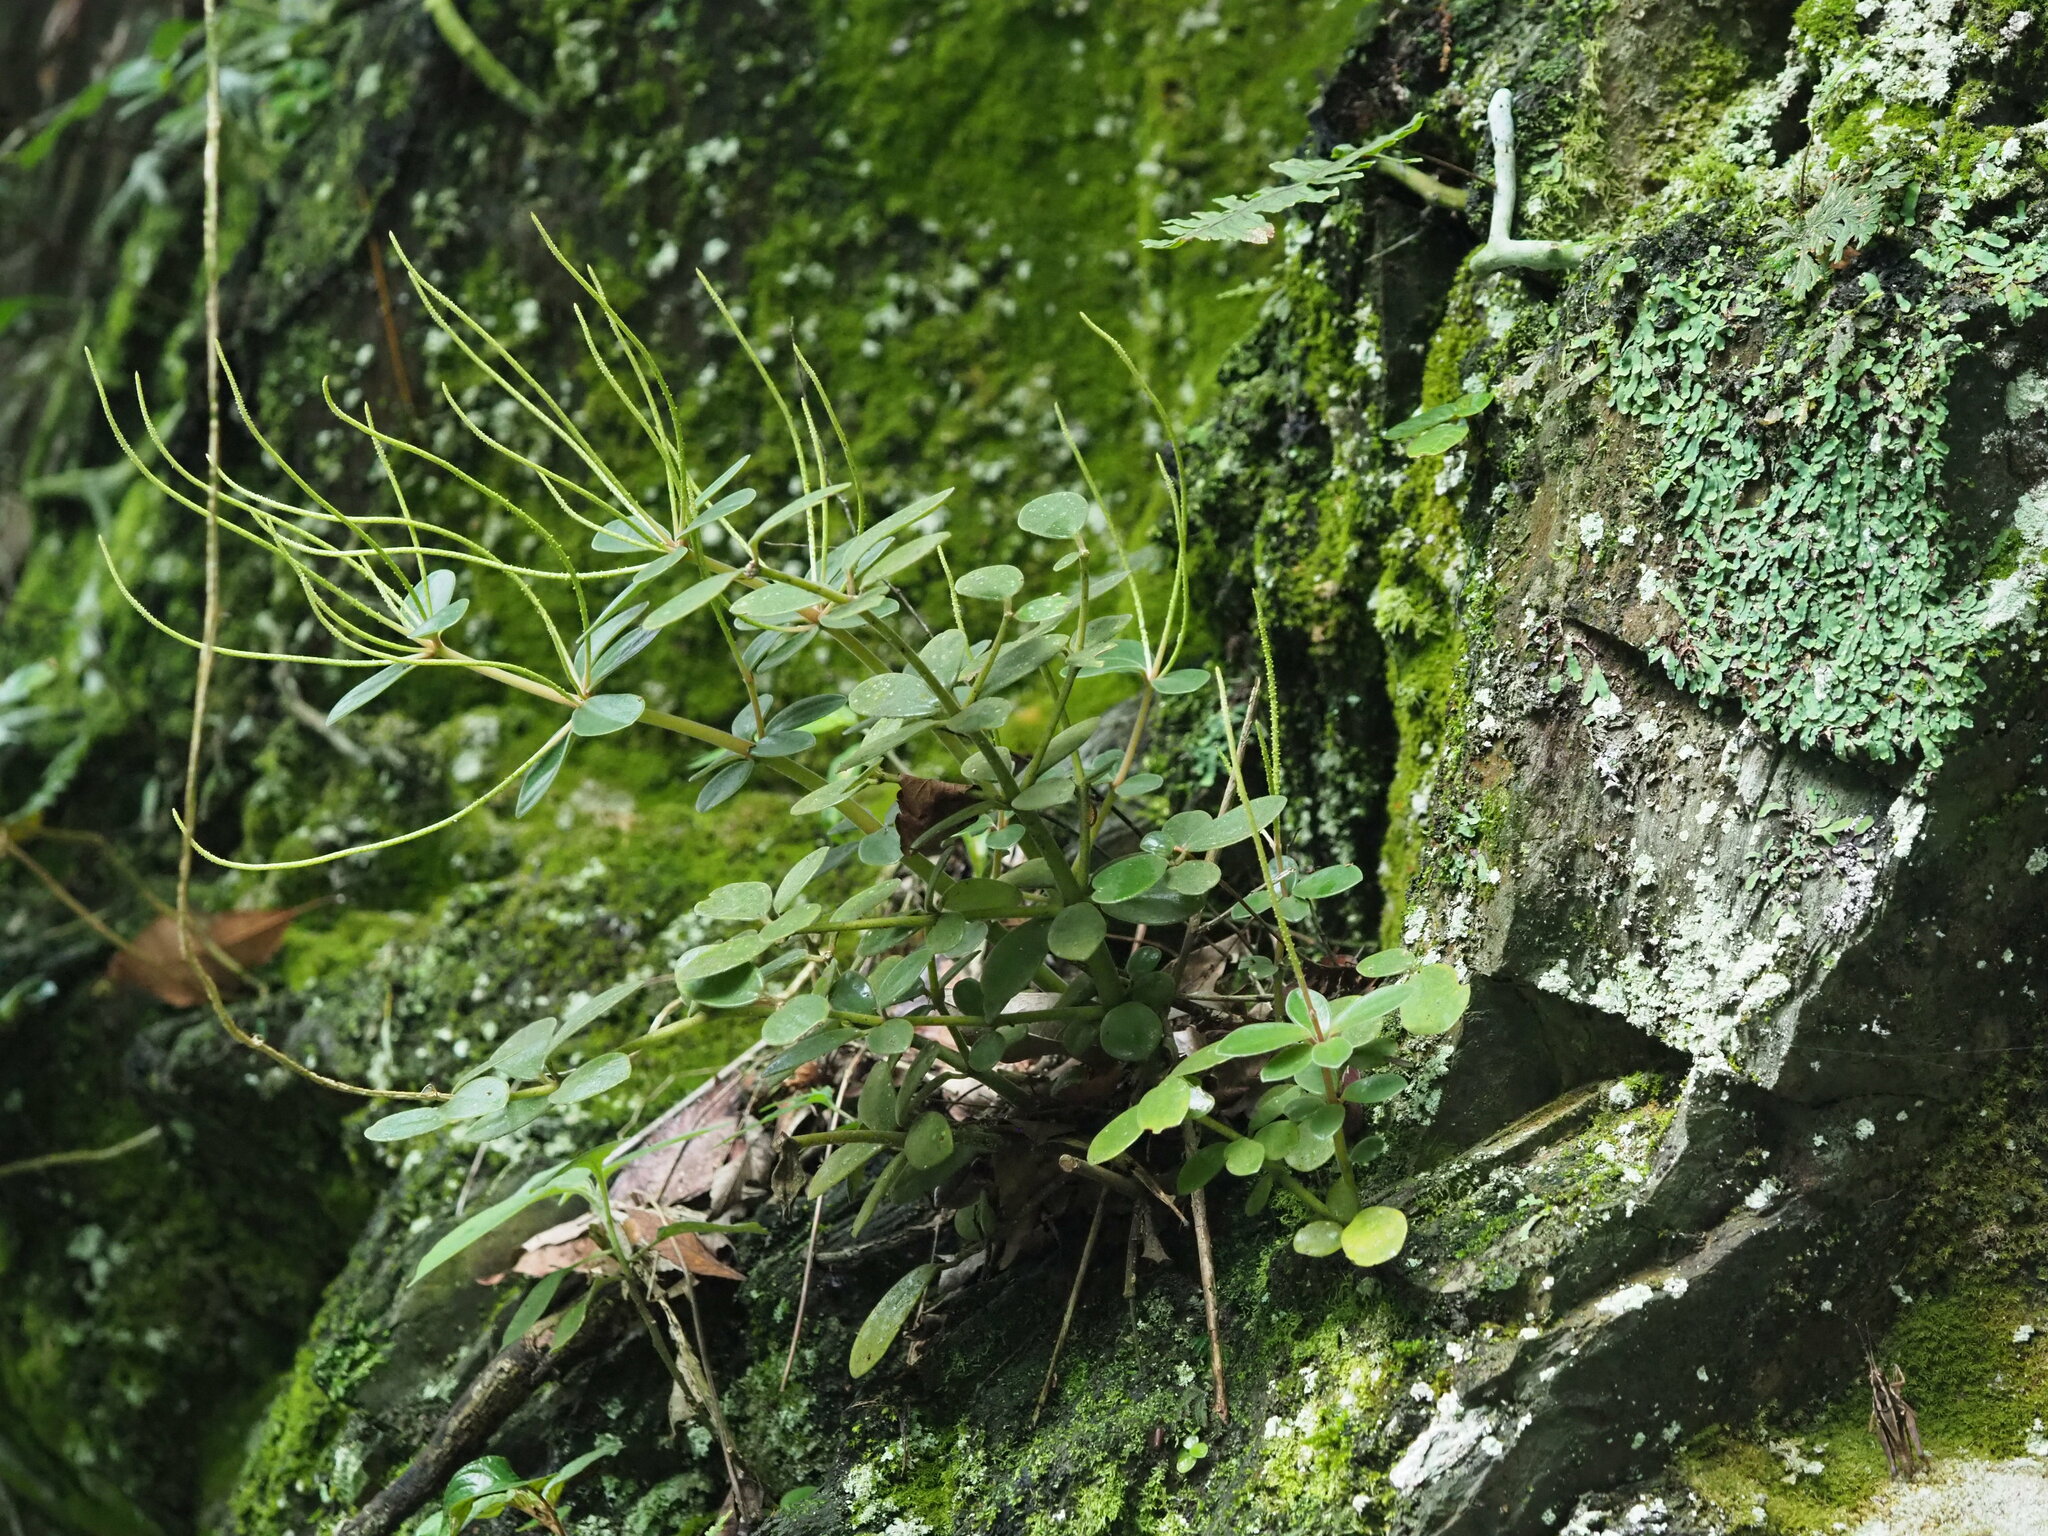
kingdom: Plantae
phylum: Tracheophyta
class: Magnoliopsida
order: Piperales
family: Piperaceae
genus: Peperomia
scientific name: Peperomia japonica
